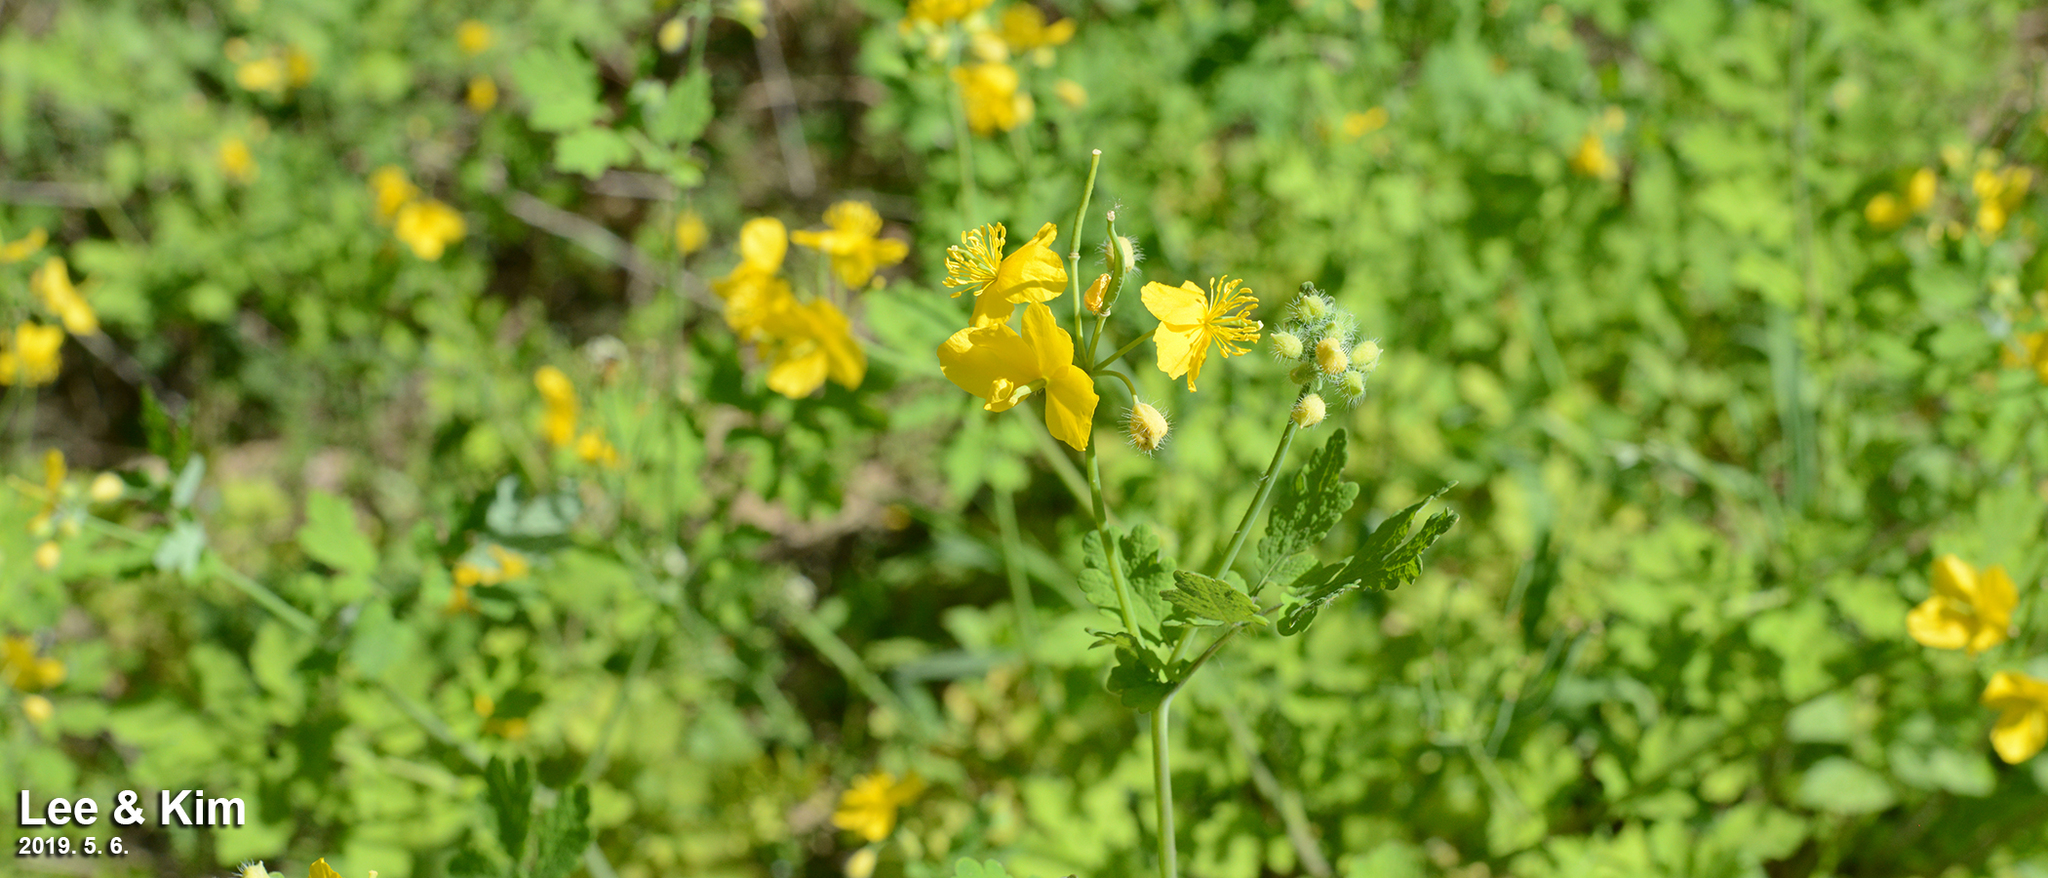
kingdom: Plantae
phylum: Tracheophyta
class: Magnoliopsida
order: Ranunculales
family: Papaveraceae
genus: Chelidonium
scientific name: Chelidonium majus
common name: Greater celandine
